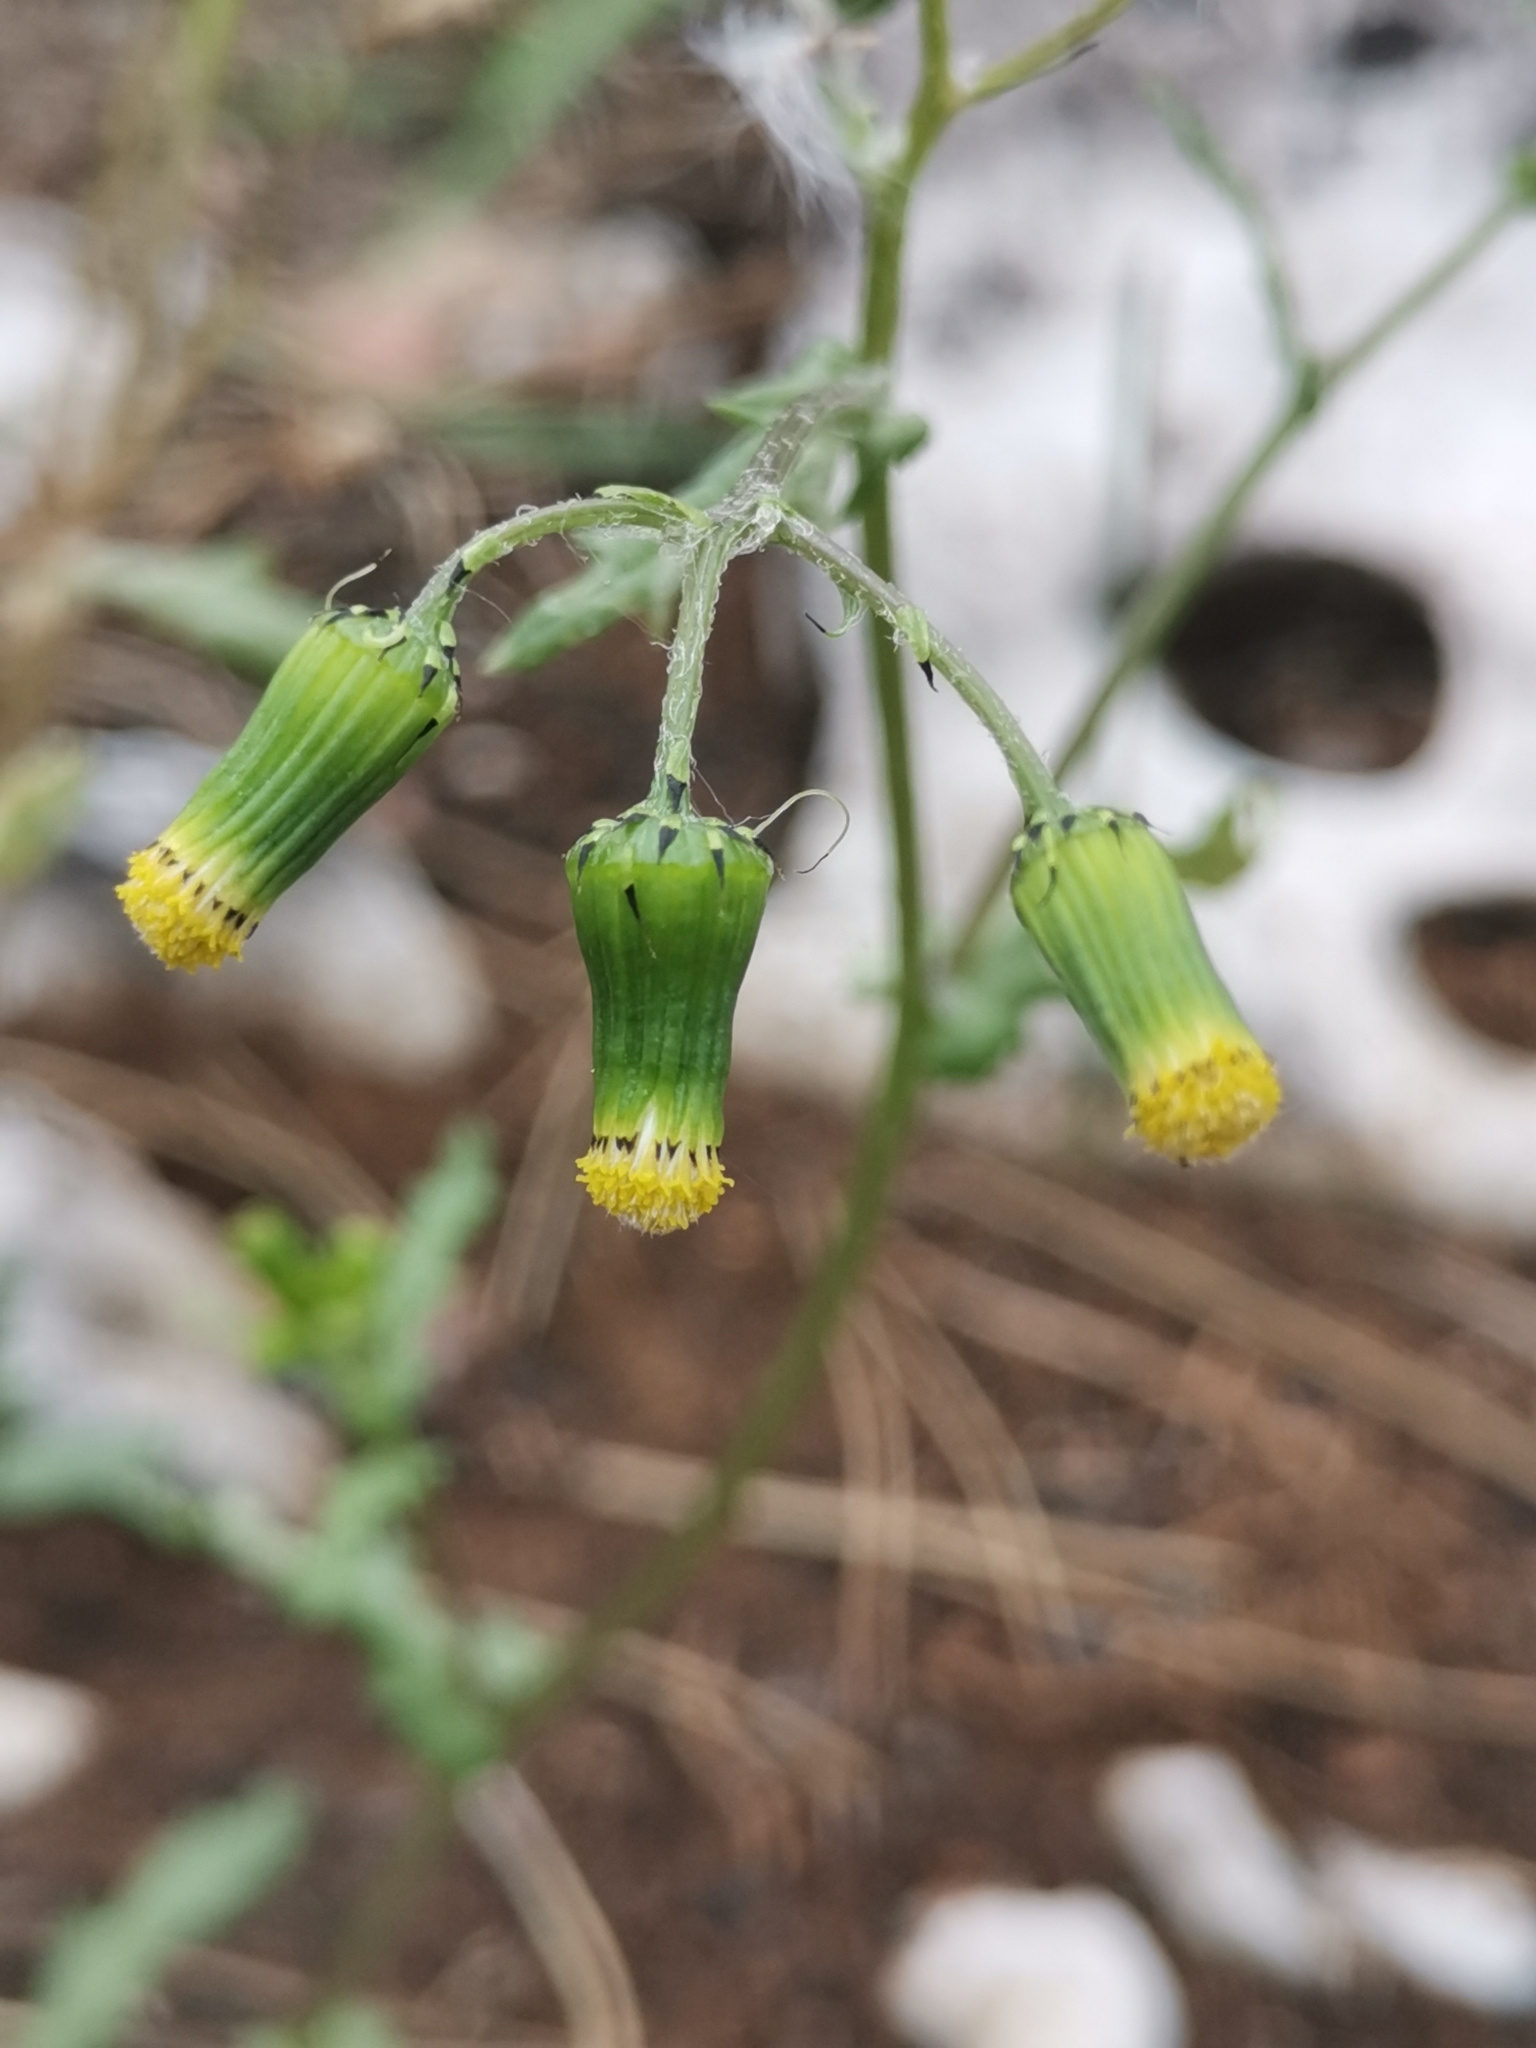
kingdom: Plantae
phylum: Tracheophyta
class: Magnoliopsida
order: Asterales
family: Asteraceae
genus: Senecio
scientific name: Senecio vulgaris
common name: Old-man-in-the-spring
